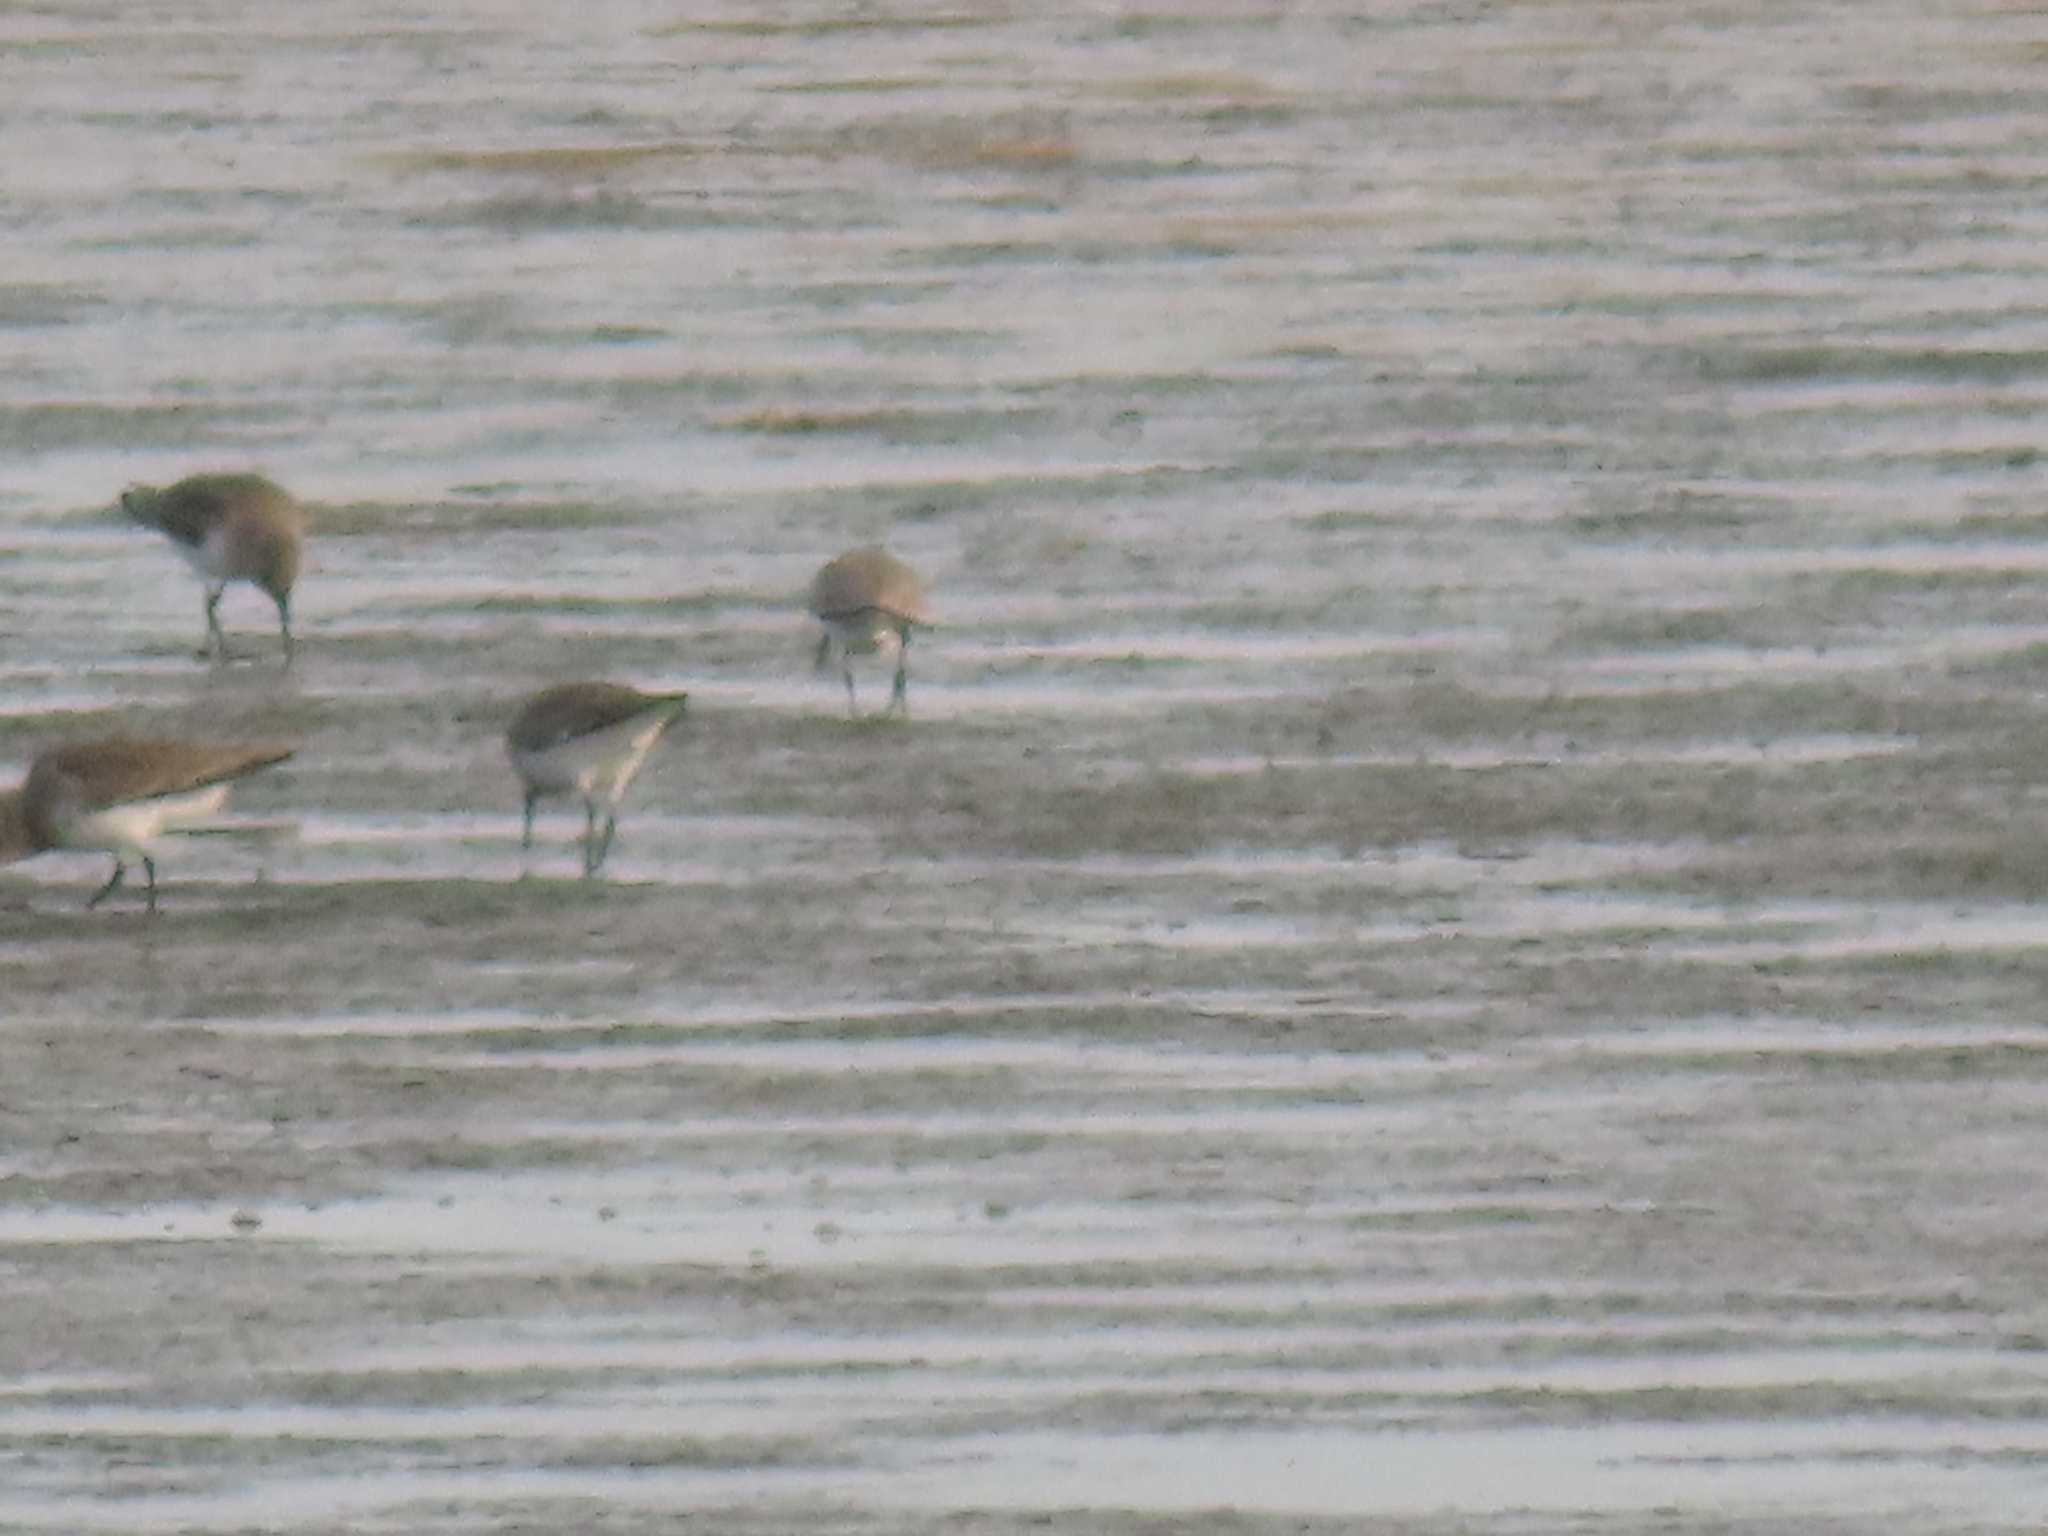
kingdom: Animalia
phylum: Chordata
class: Aves
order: Charadriiformes
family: Scolopacidae
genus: Calidris
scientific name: Calidris alpina
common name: Dunlin
